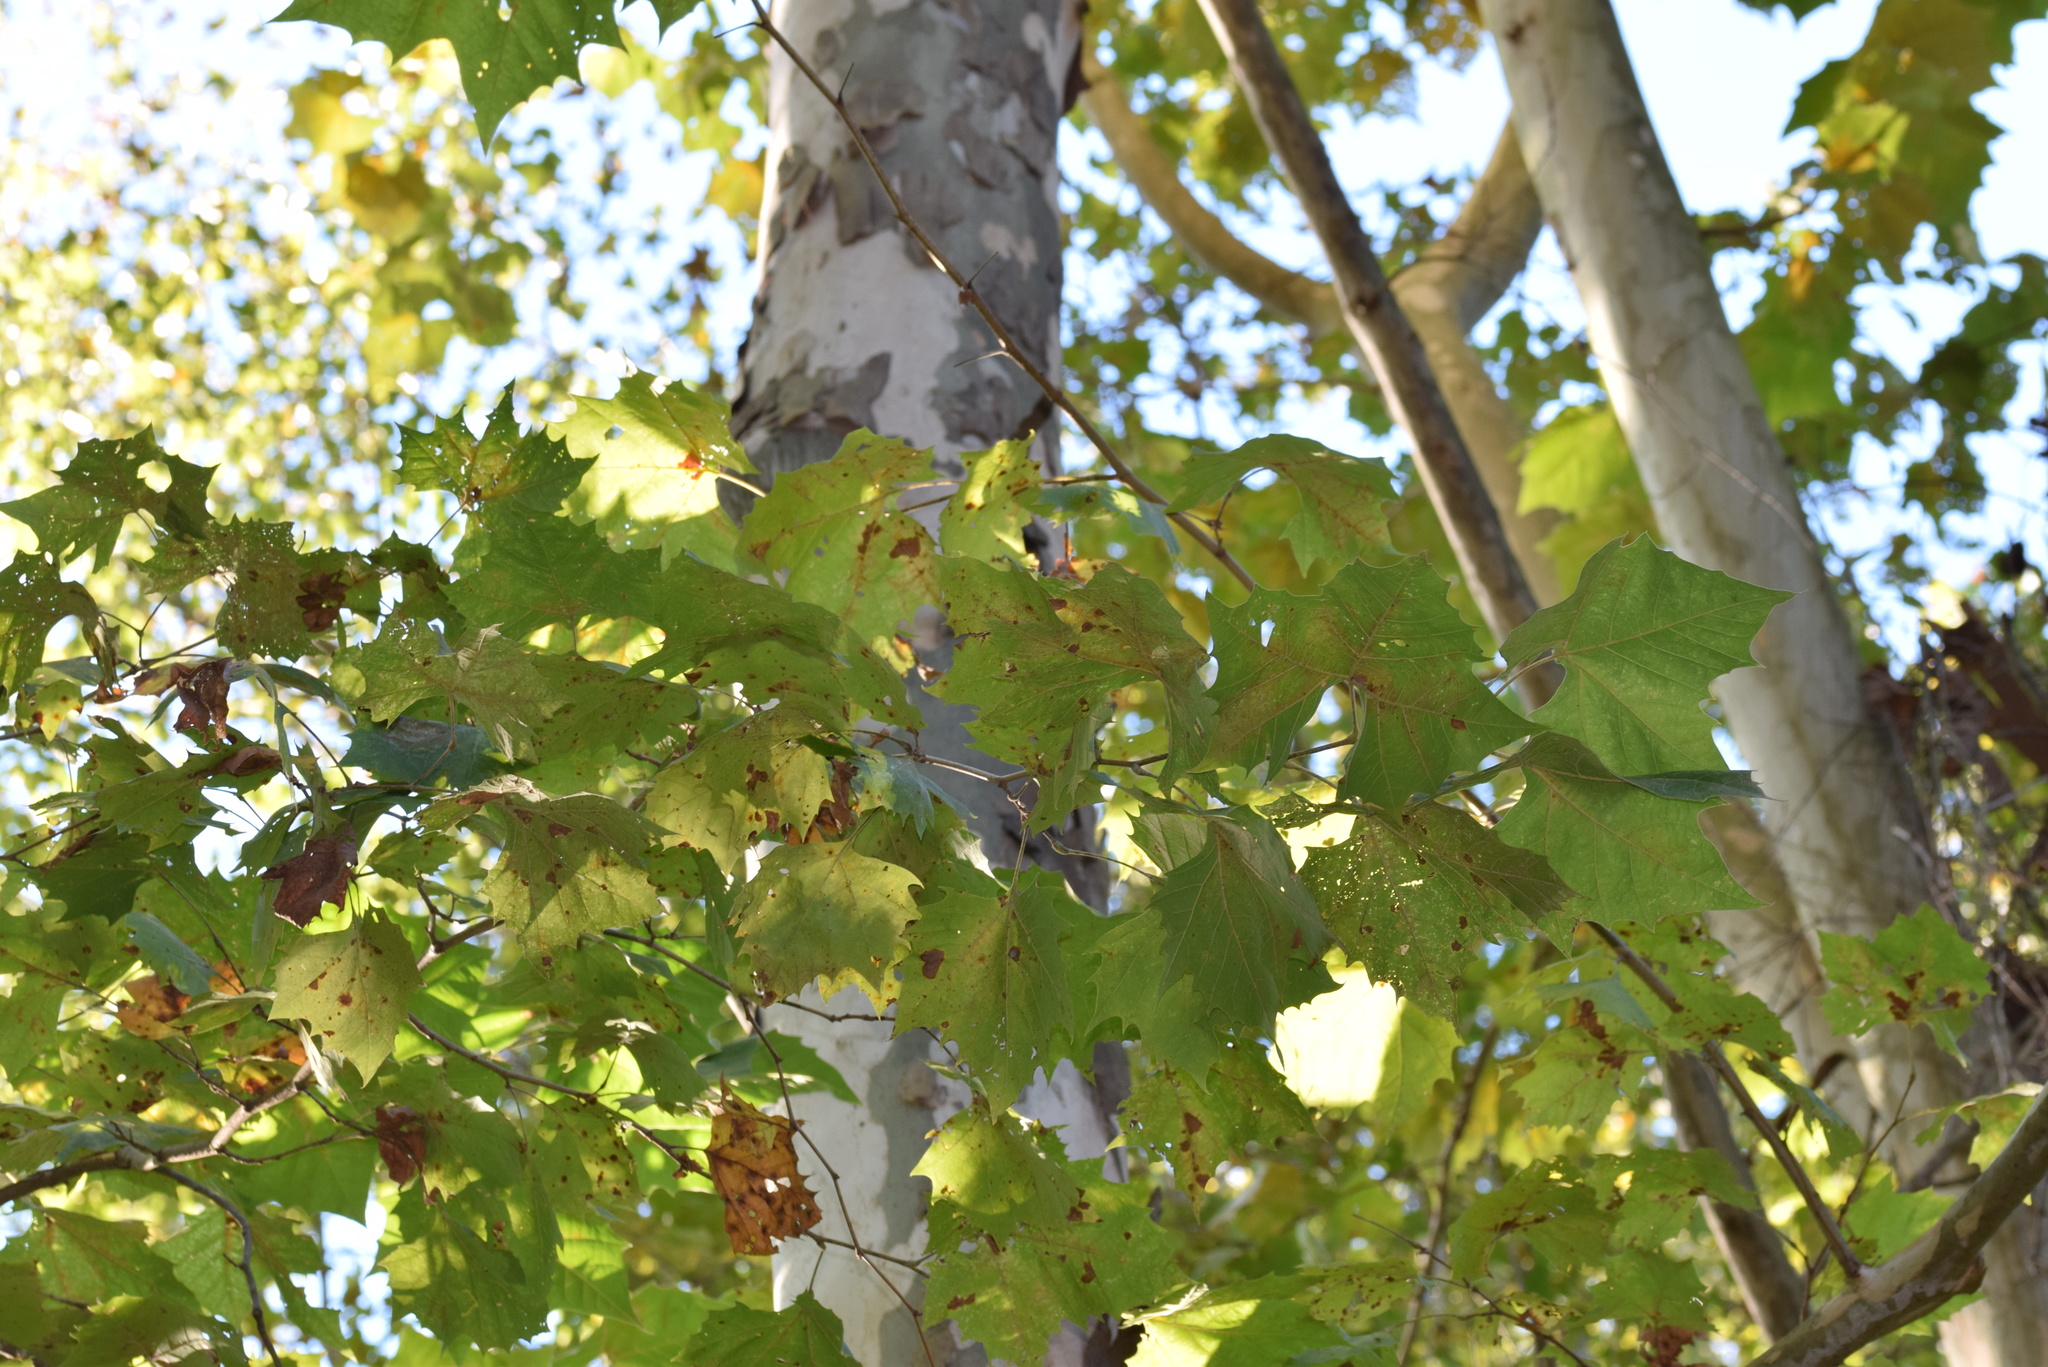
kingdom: Plantae
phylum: Tracheophyta
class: Magnoliopsida
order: Proteales
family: Platanaceae
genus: Platanus
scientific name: Platanus occidentalis
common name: American sycamore
